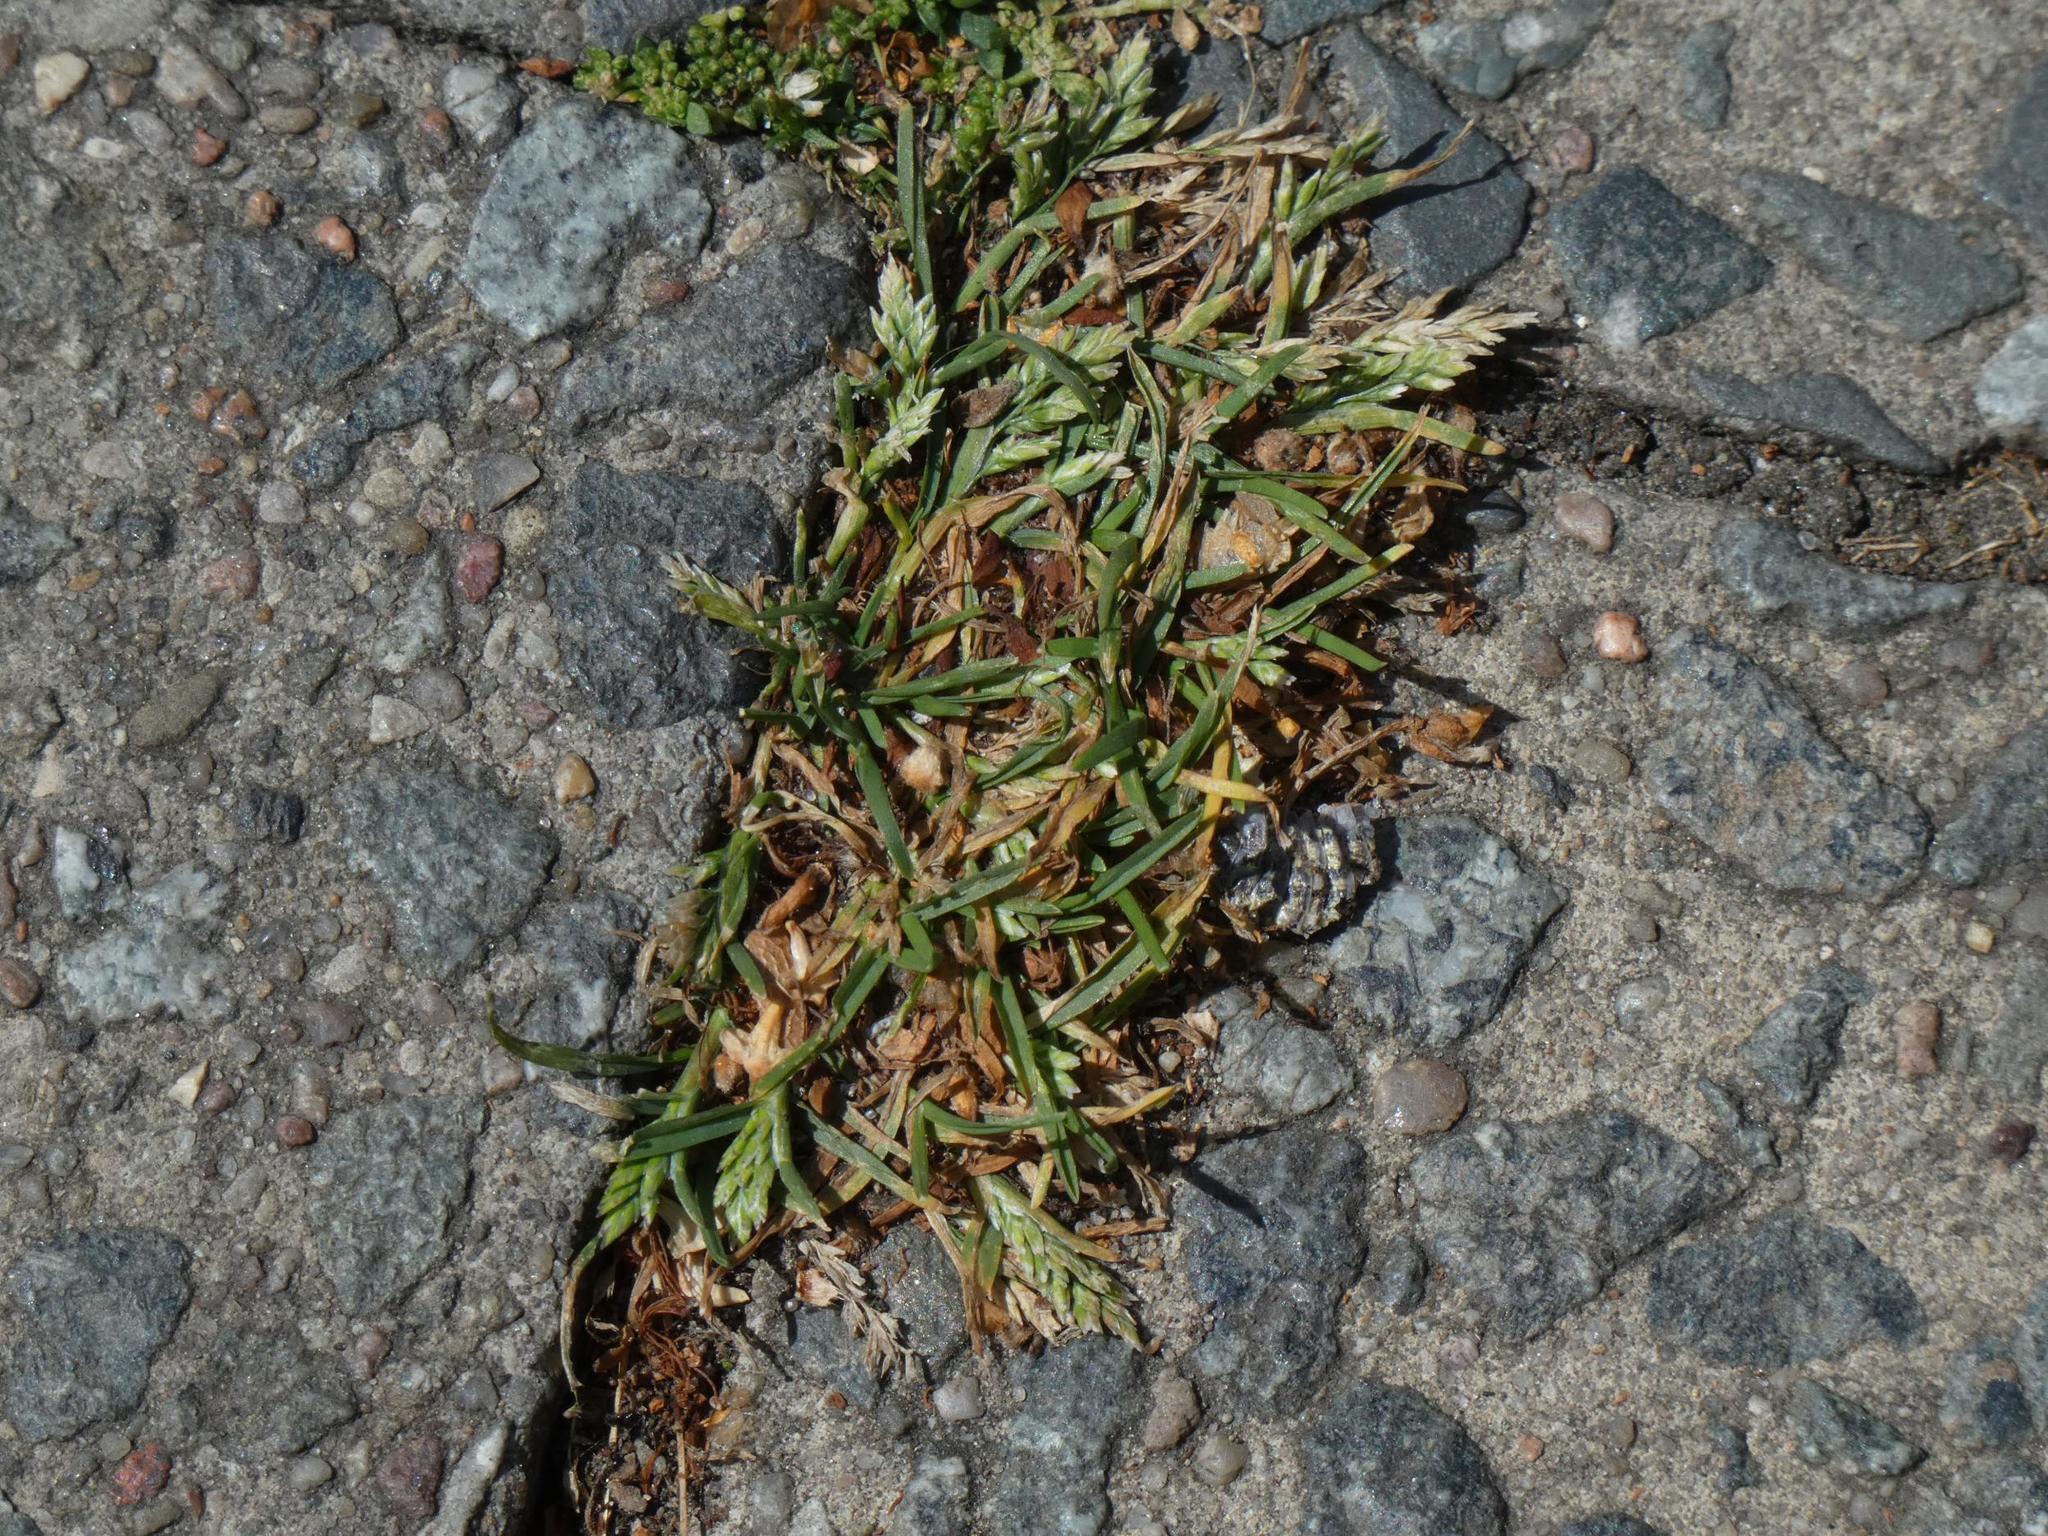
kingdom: Plantae
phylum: Tracheophyta
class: Liliopsida
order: Poales
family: Poaceae
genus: Poa
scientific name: Poa annua
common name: Annual bluegrass
